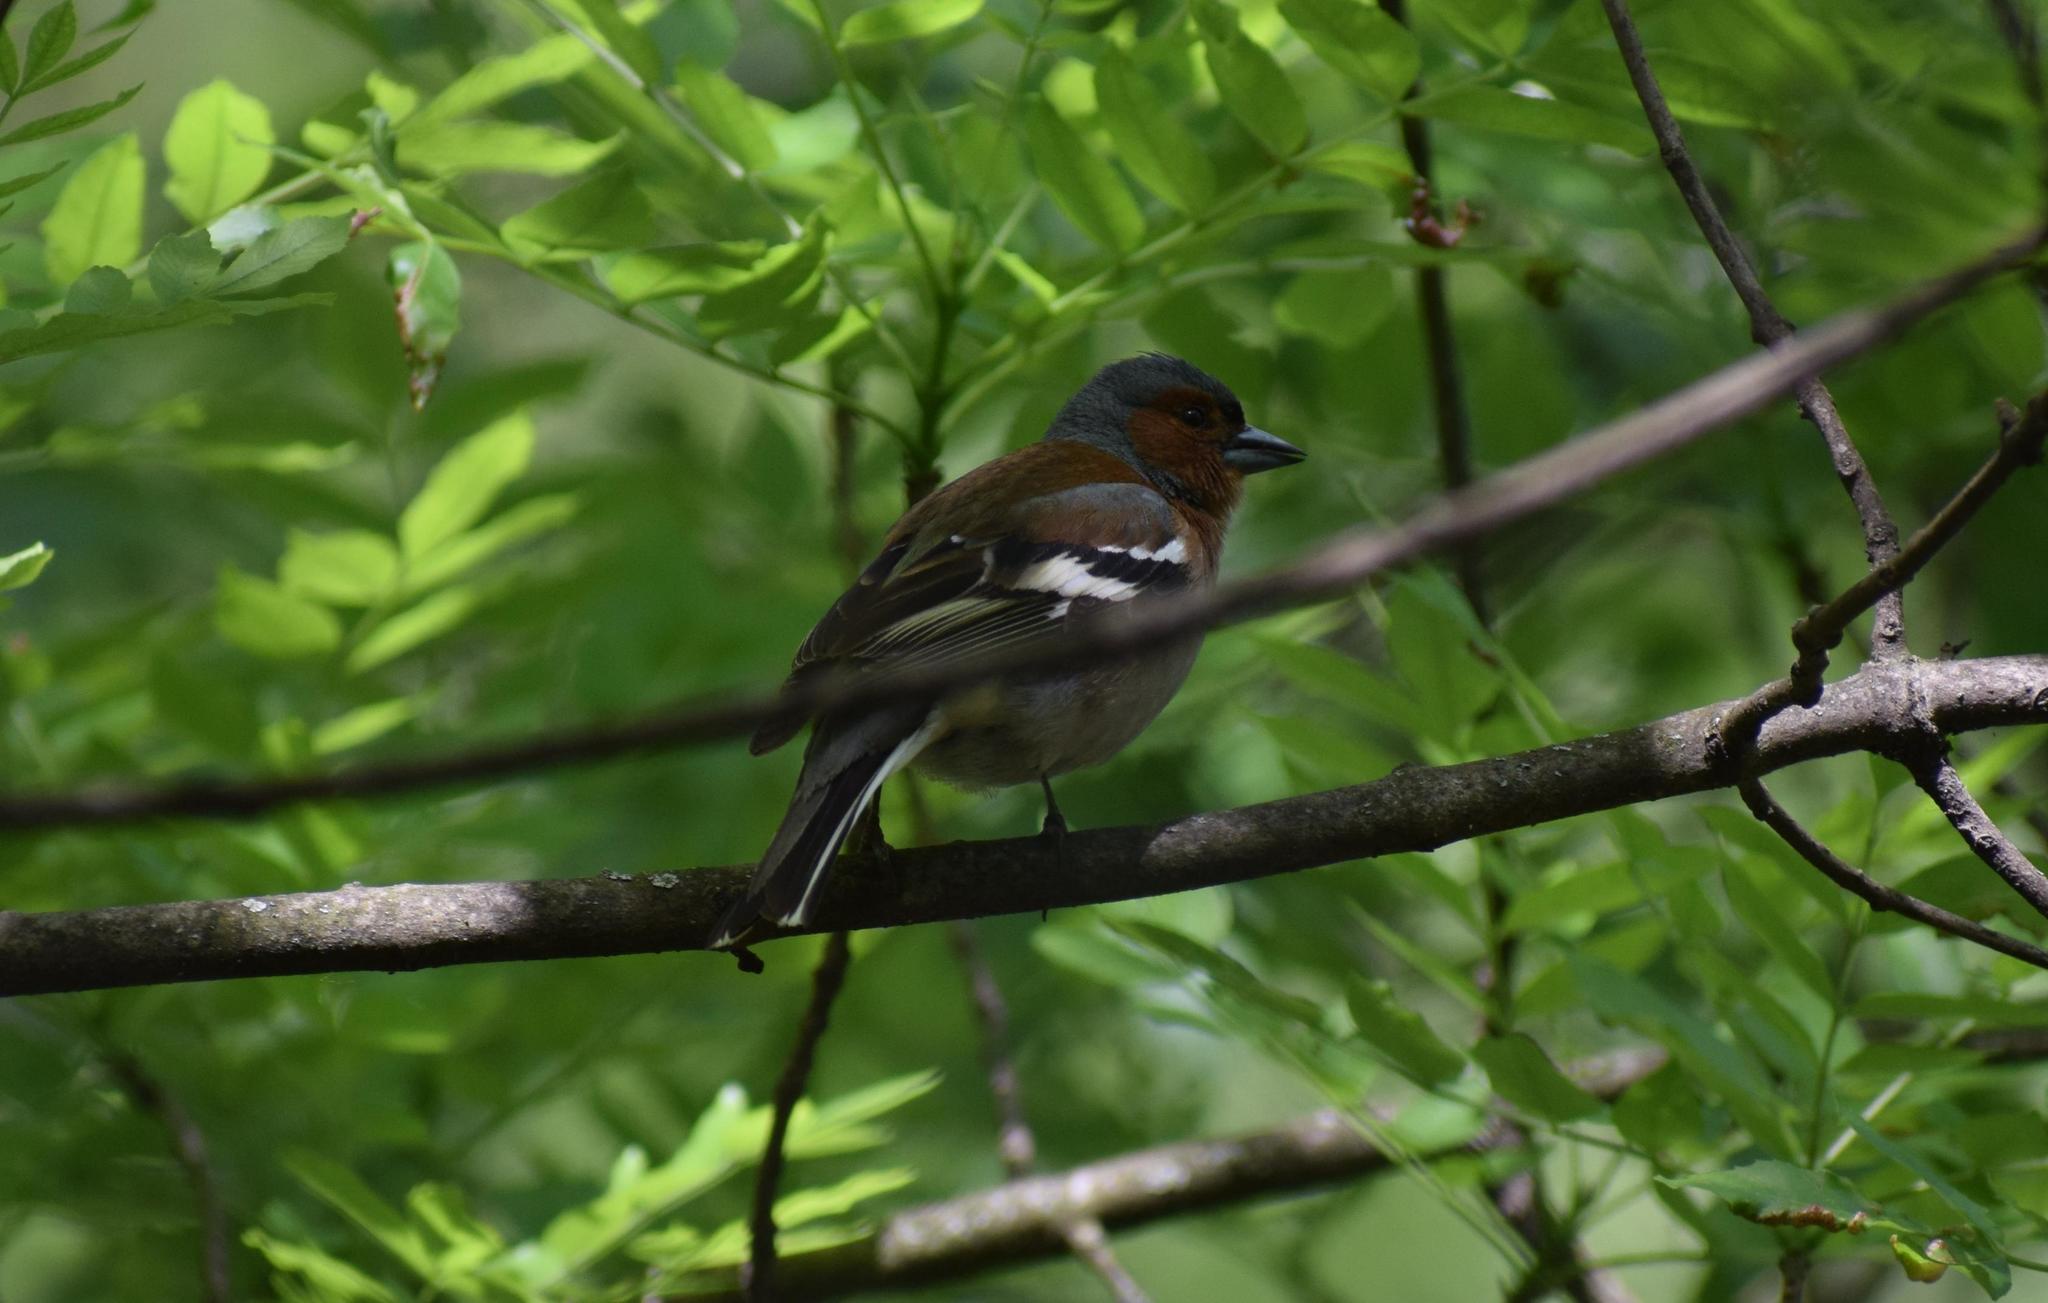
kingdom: Animalia
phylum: Chordata
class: Aves
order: Passeriformes
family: Fringillidae
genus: Fringilla
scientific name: Fringilla coelebs
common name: Common chaffinch
